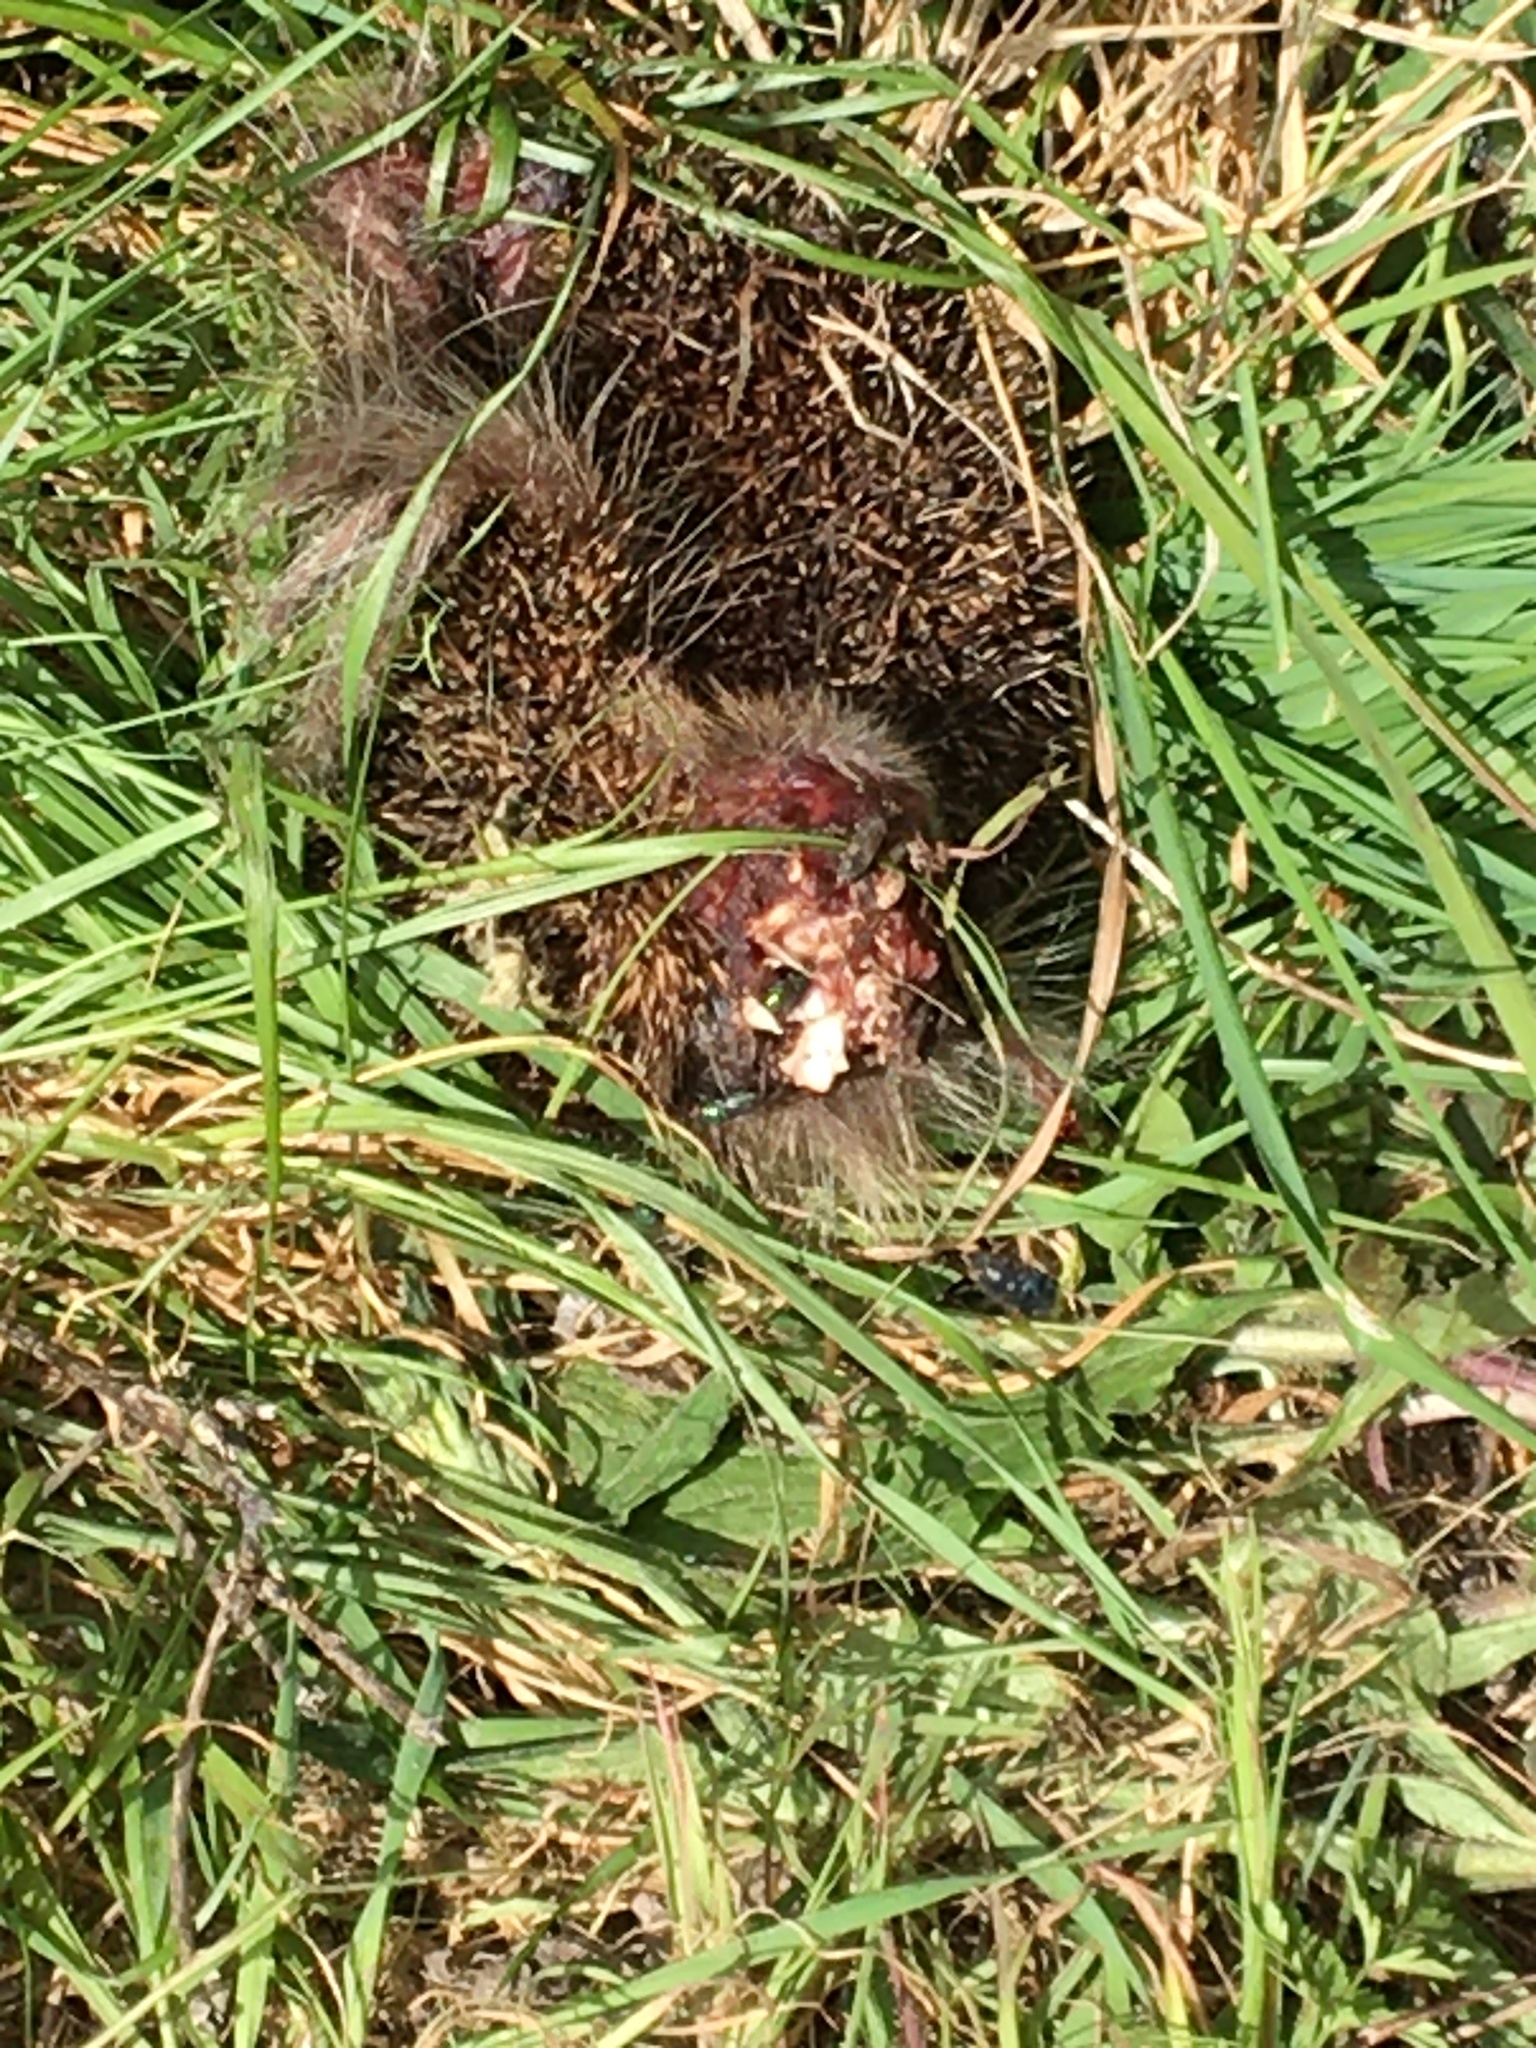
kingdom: Animalia
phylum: Chordata
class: Mammalia
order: Erinaceomorpha
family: Erinaceidae
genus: Erinaceus
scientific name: Erinaceus europaeus
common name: West european hedgehog
